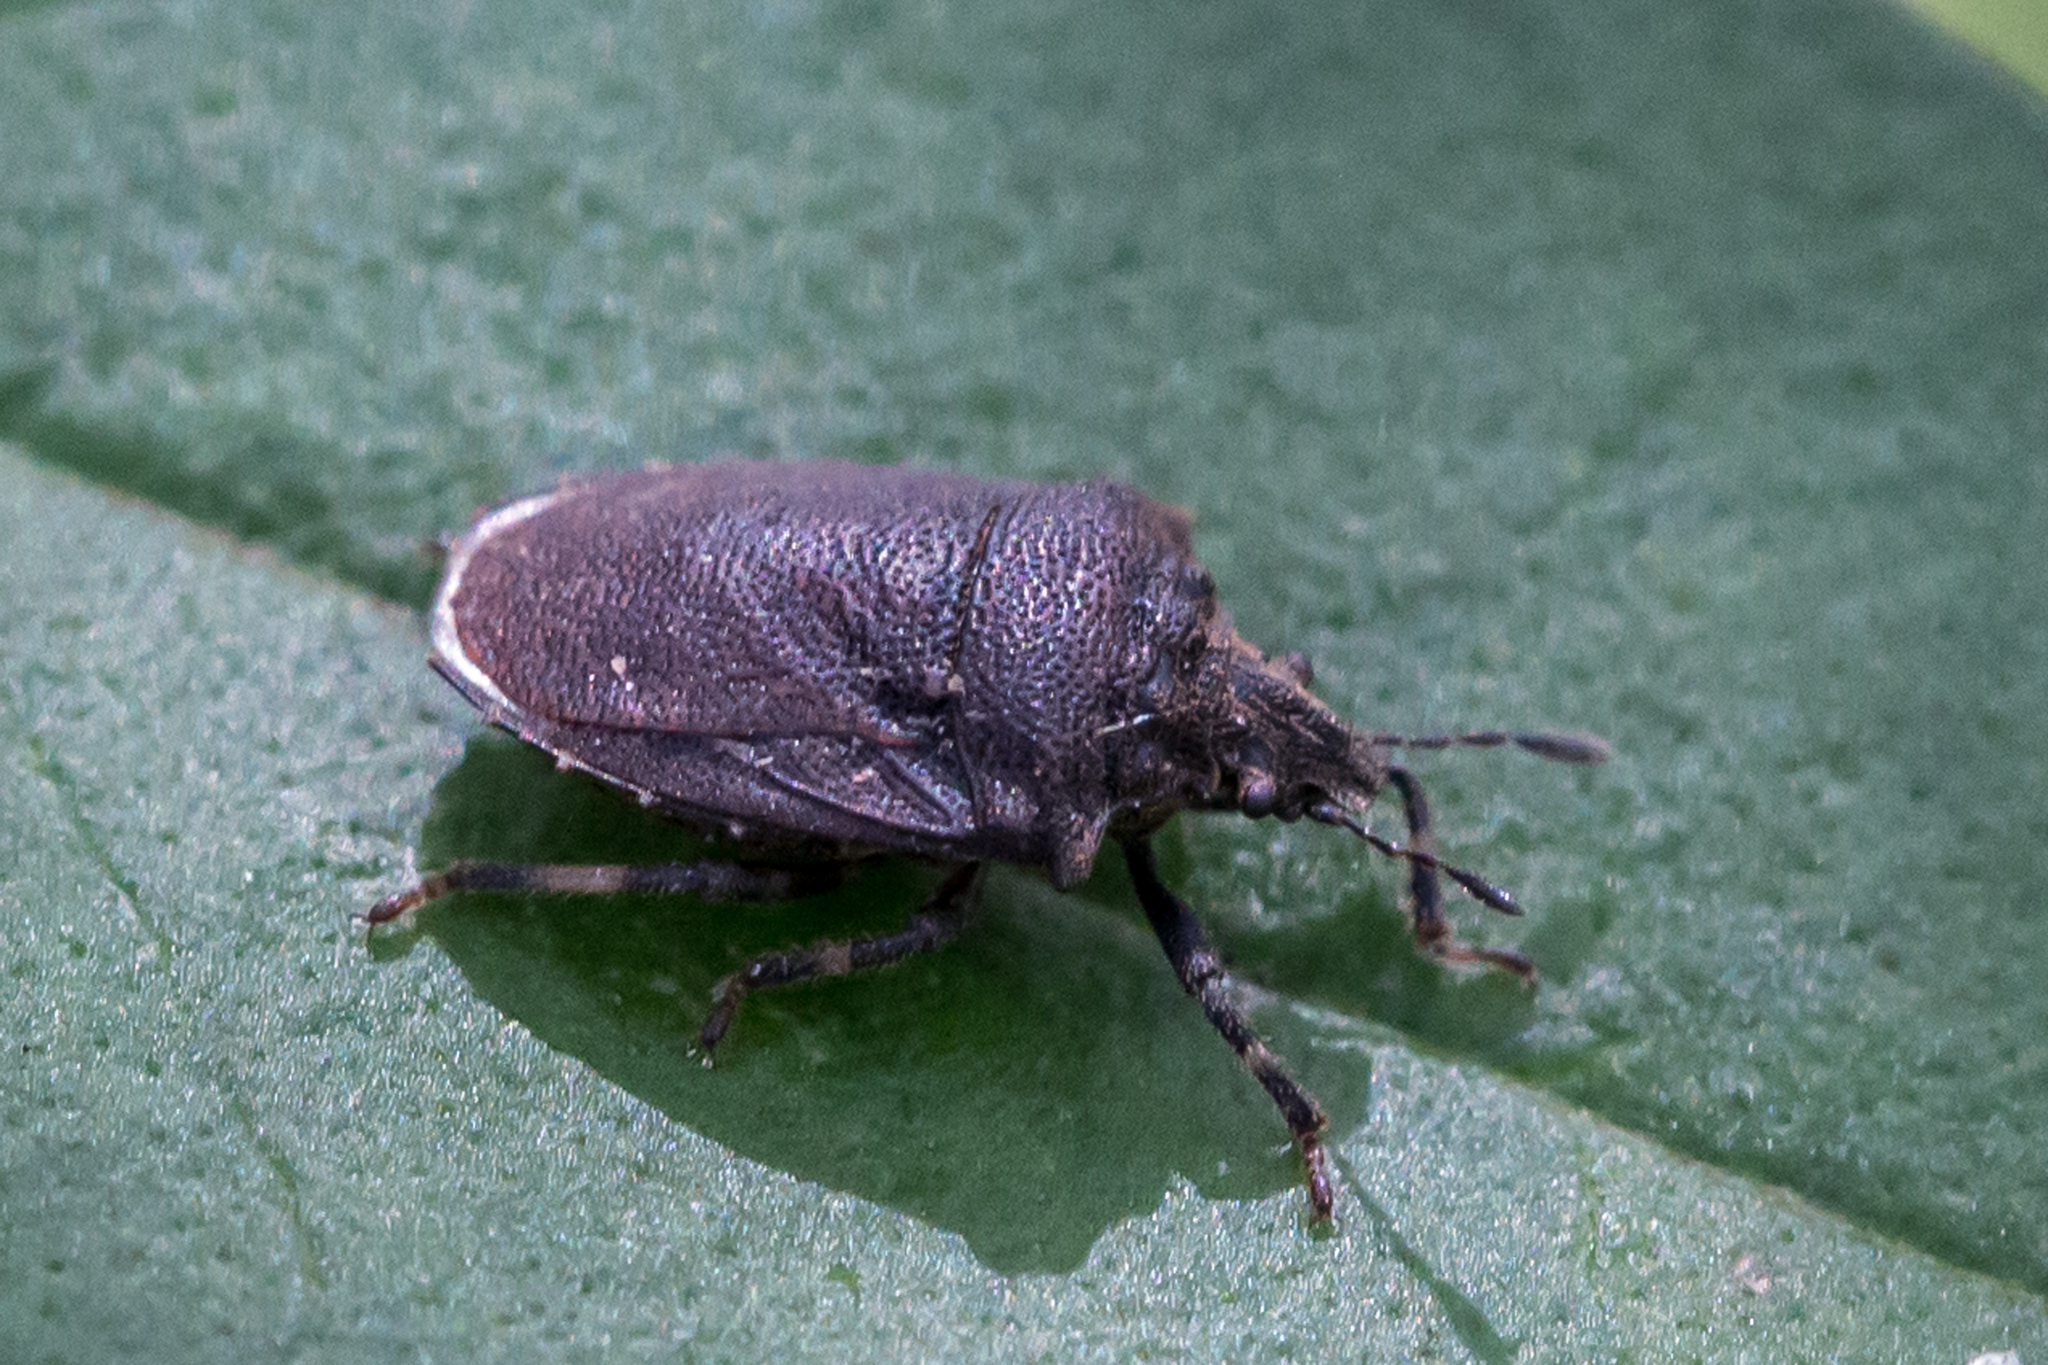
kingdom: Animalia
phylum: Arthropoda
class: Insecta
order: Hemiptera
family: Pentatomidae
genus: Amaurochrous
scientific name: Amaurochrous cinctipes
